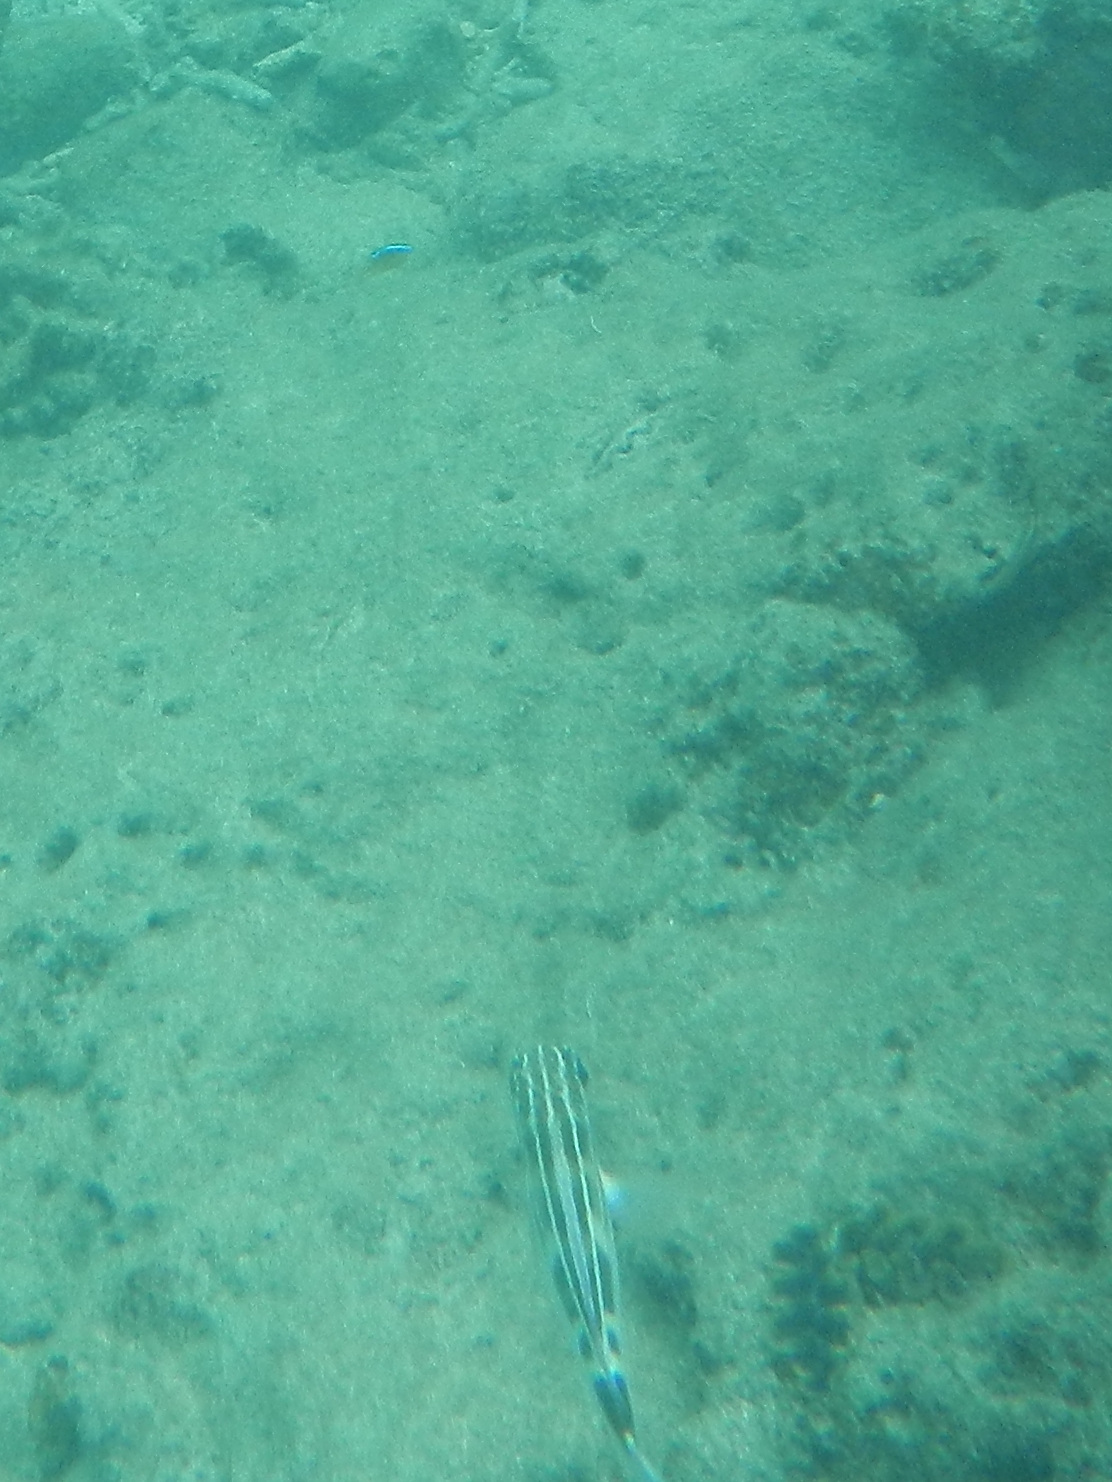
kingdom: Animalia
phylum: Chordata
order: Perciformes
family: Nemipteridae
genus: Scolopsis
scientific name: Scolopsis lineata
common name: Striped monocle bream
